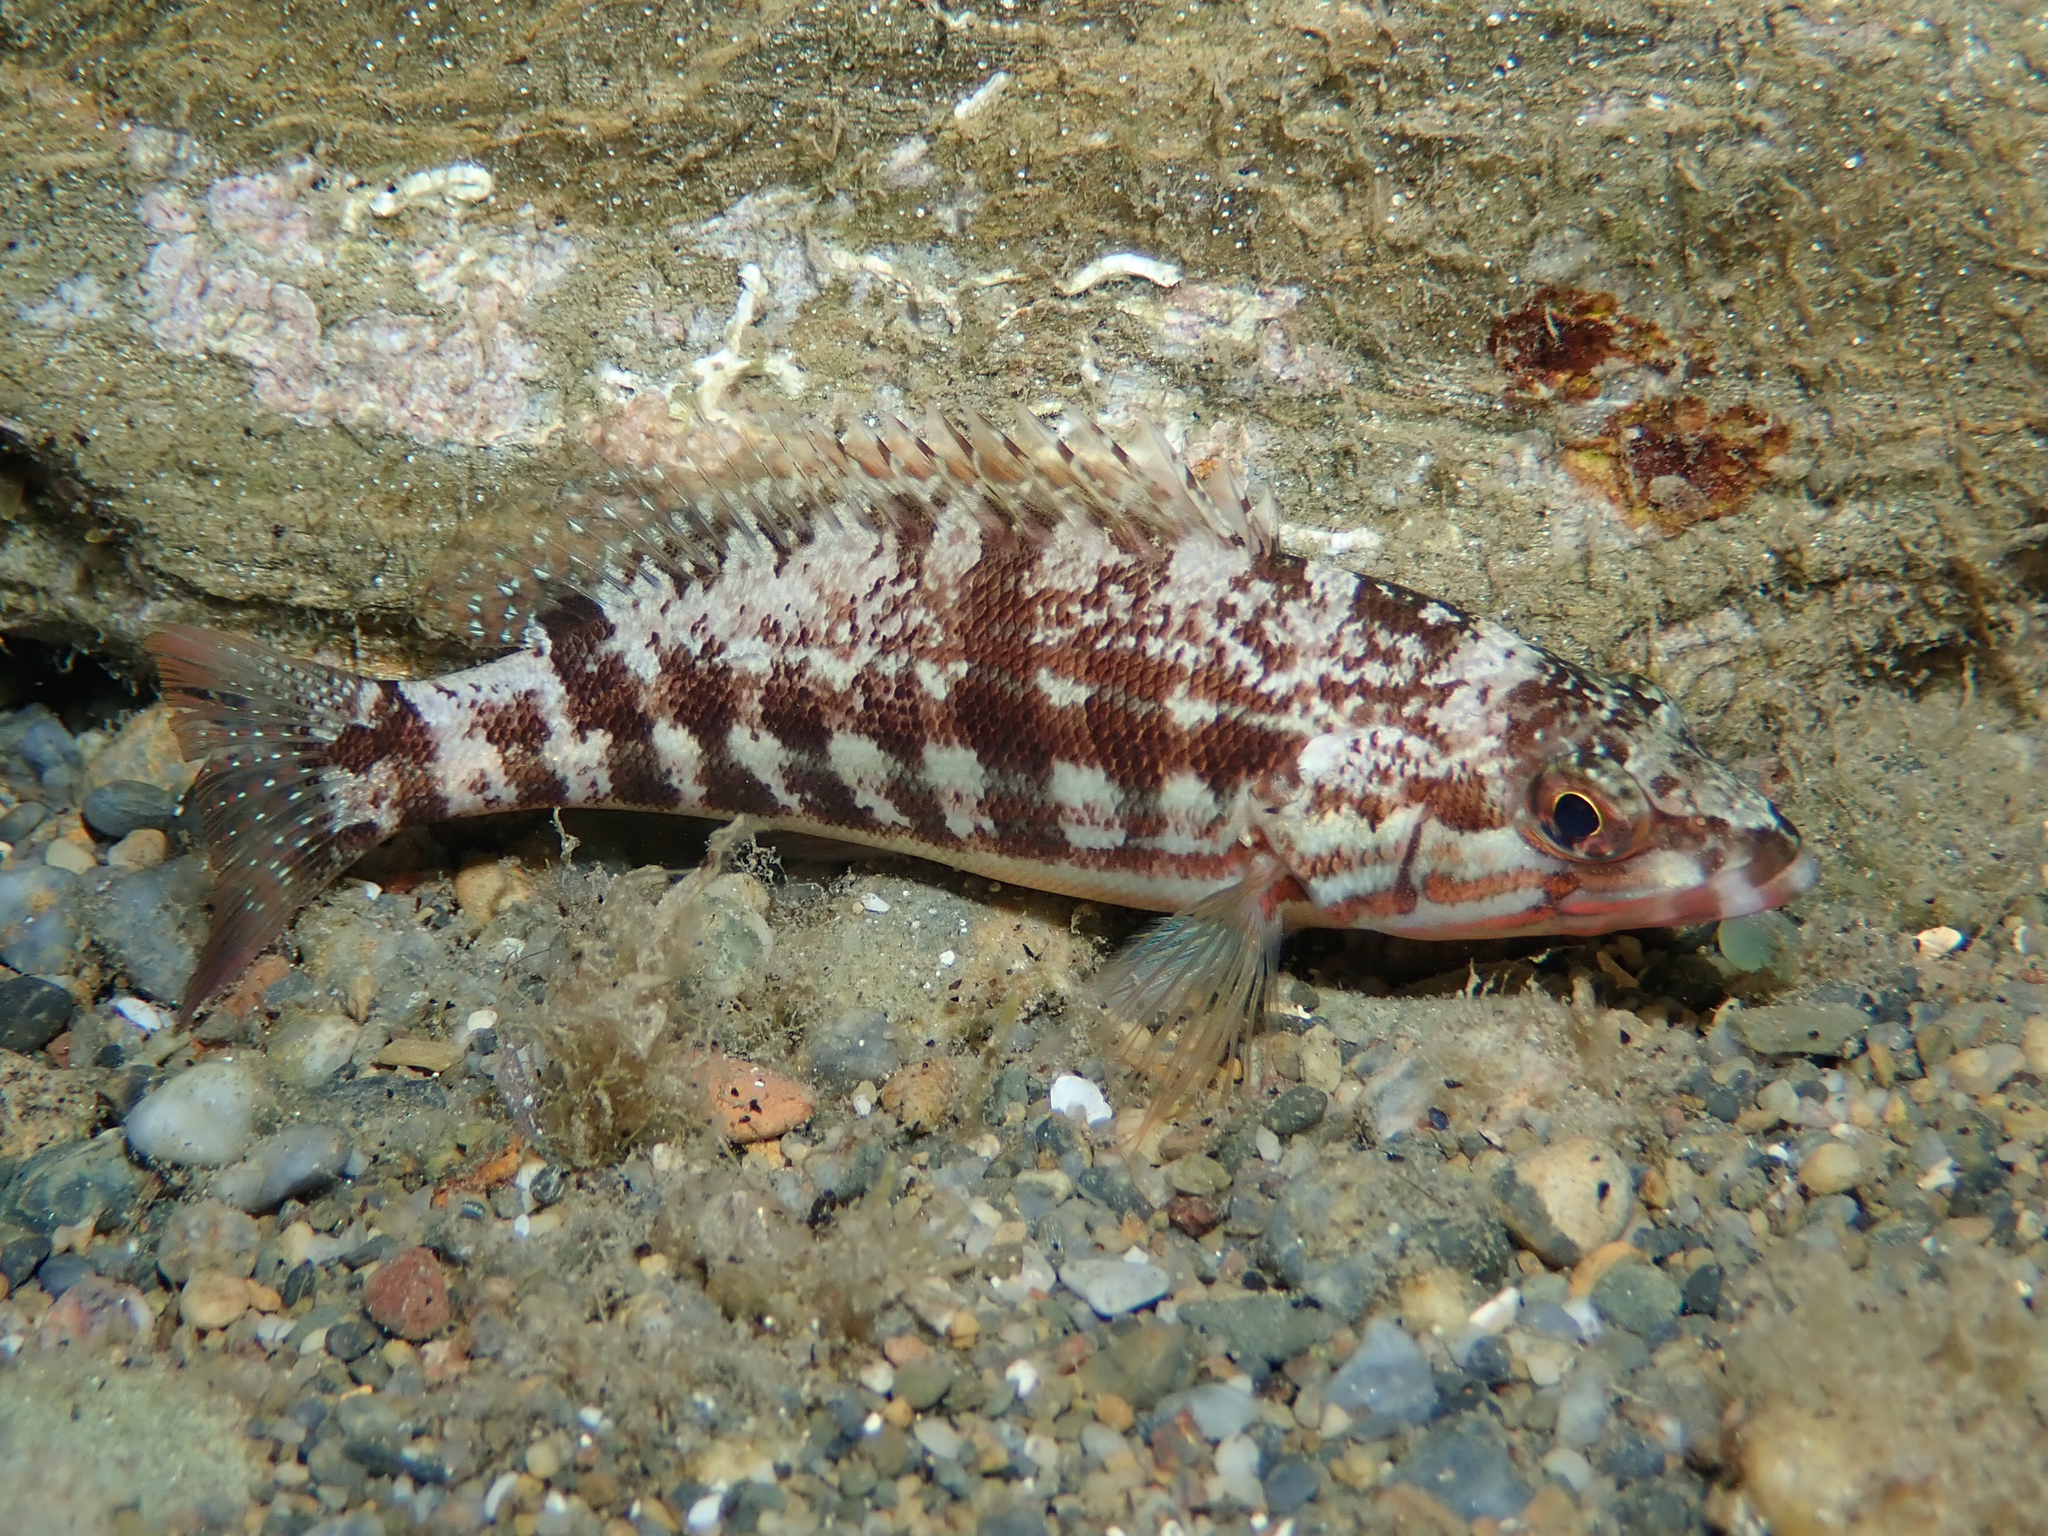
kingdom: Animalia
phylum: Chordata
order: Perciformes
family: Serranidae
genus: Serranus
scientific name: Serranus cabrilla
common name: Comber
